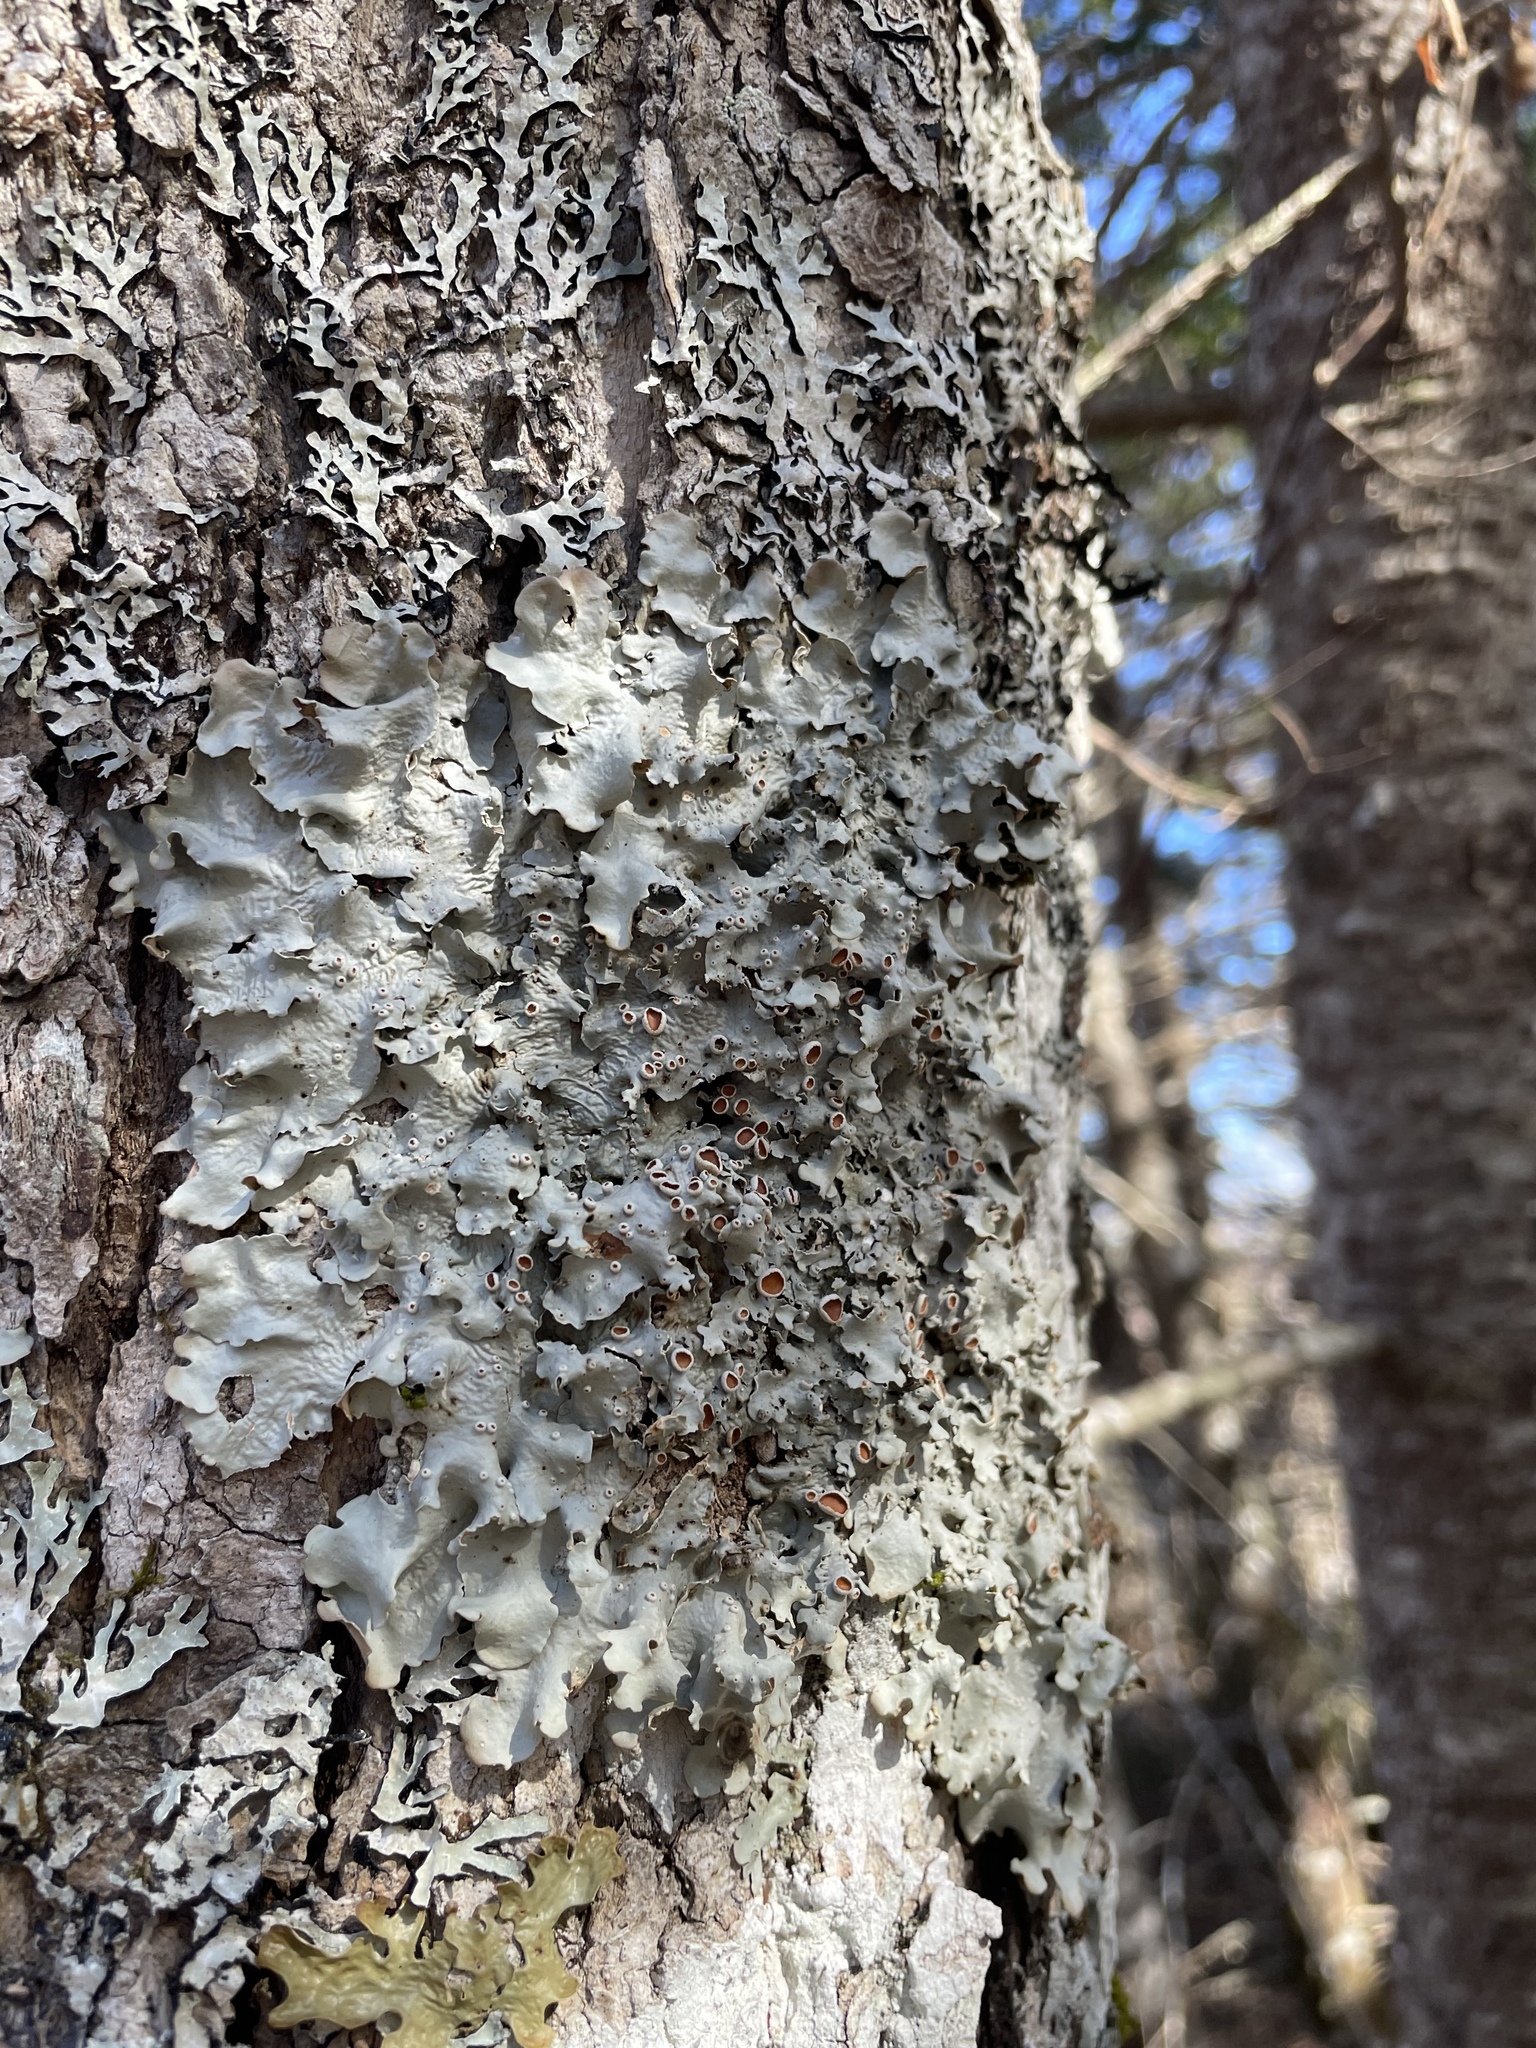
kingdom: Fungi
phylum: Ascomycota
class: Lecanoromycetes
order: Peltigerales
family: Lobariaceae
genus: Ricasolia
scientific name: Ricasolia quercizans
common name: Smooth lungwort
